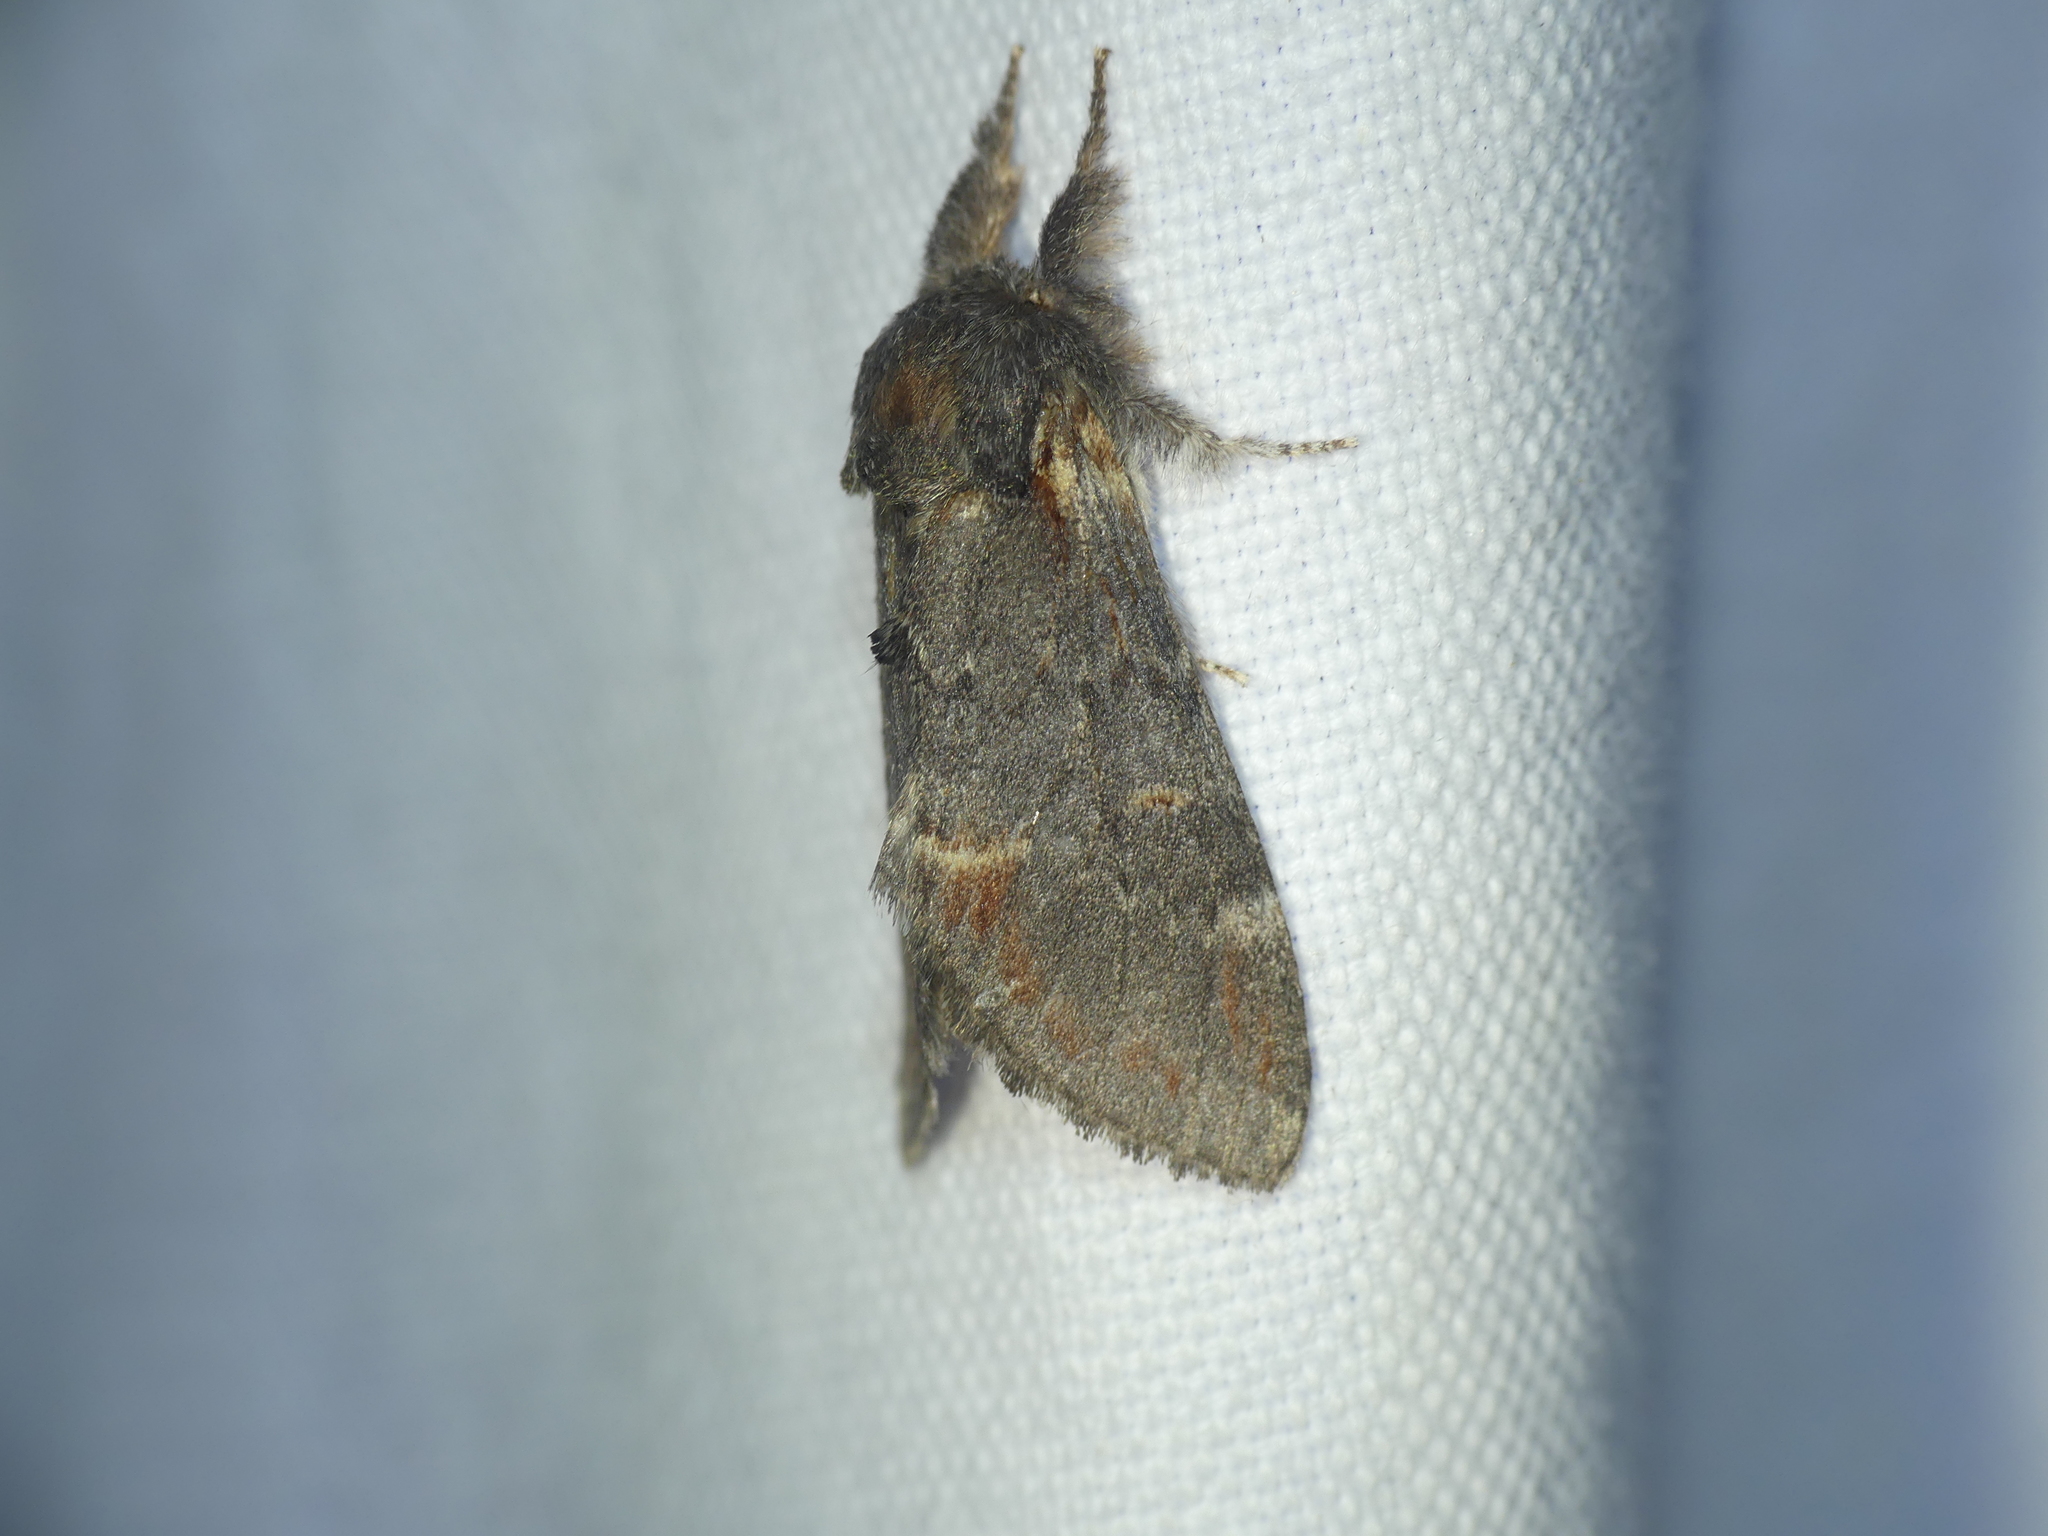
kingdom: Animalia
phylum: Arthropoda
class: Insecta
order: Lepidoptera
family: Notodontidae
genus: Notodonta
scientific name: Notodonta dromedarius
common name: Iron prominent
